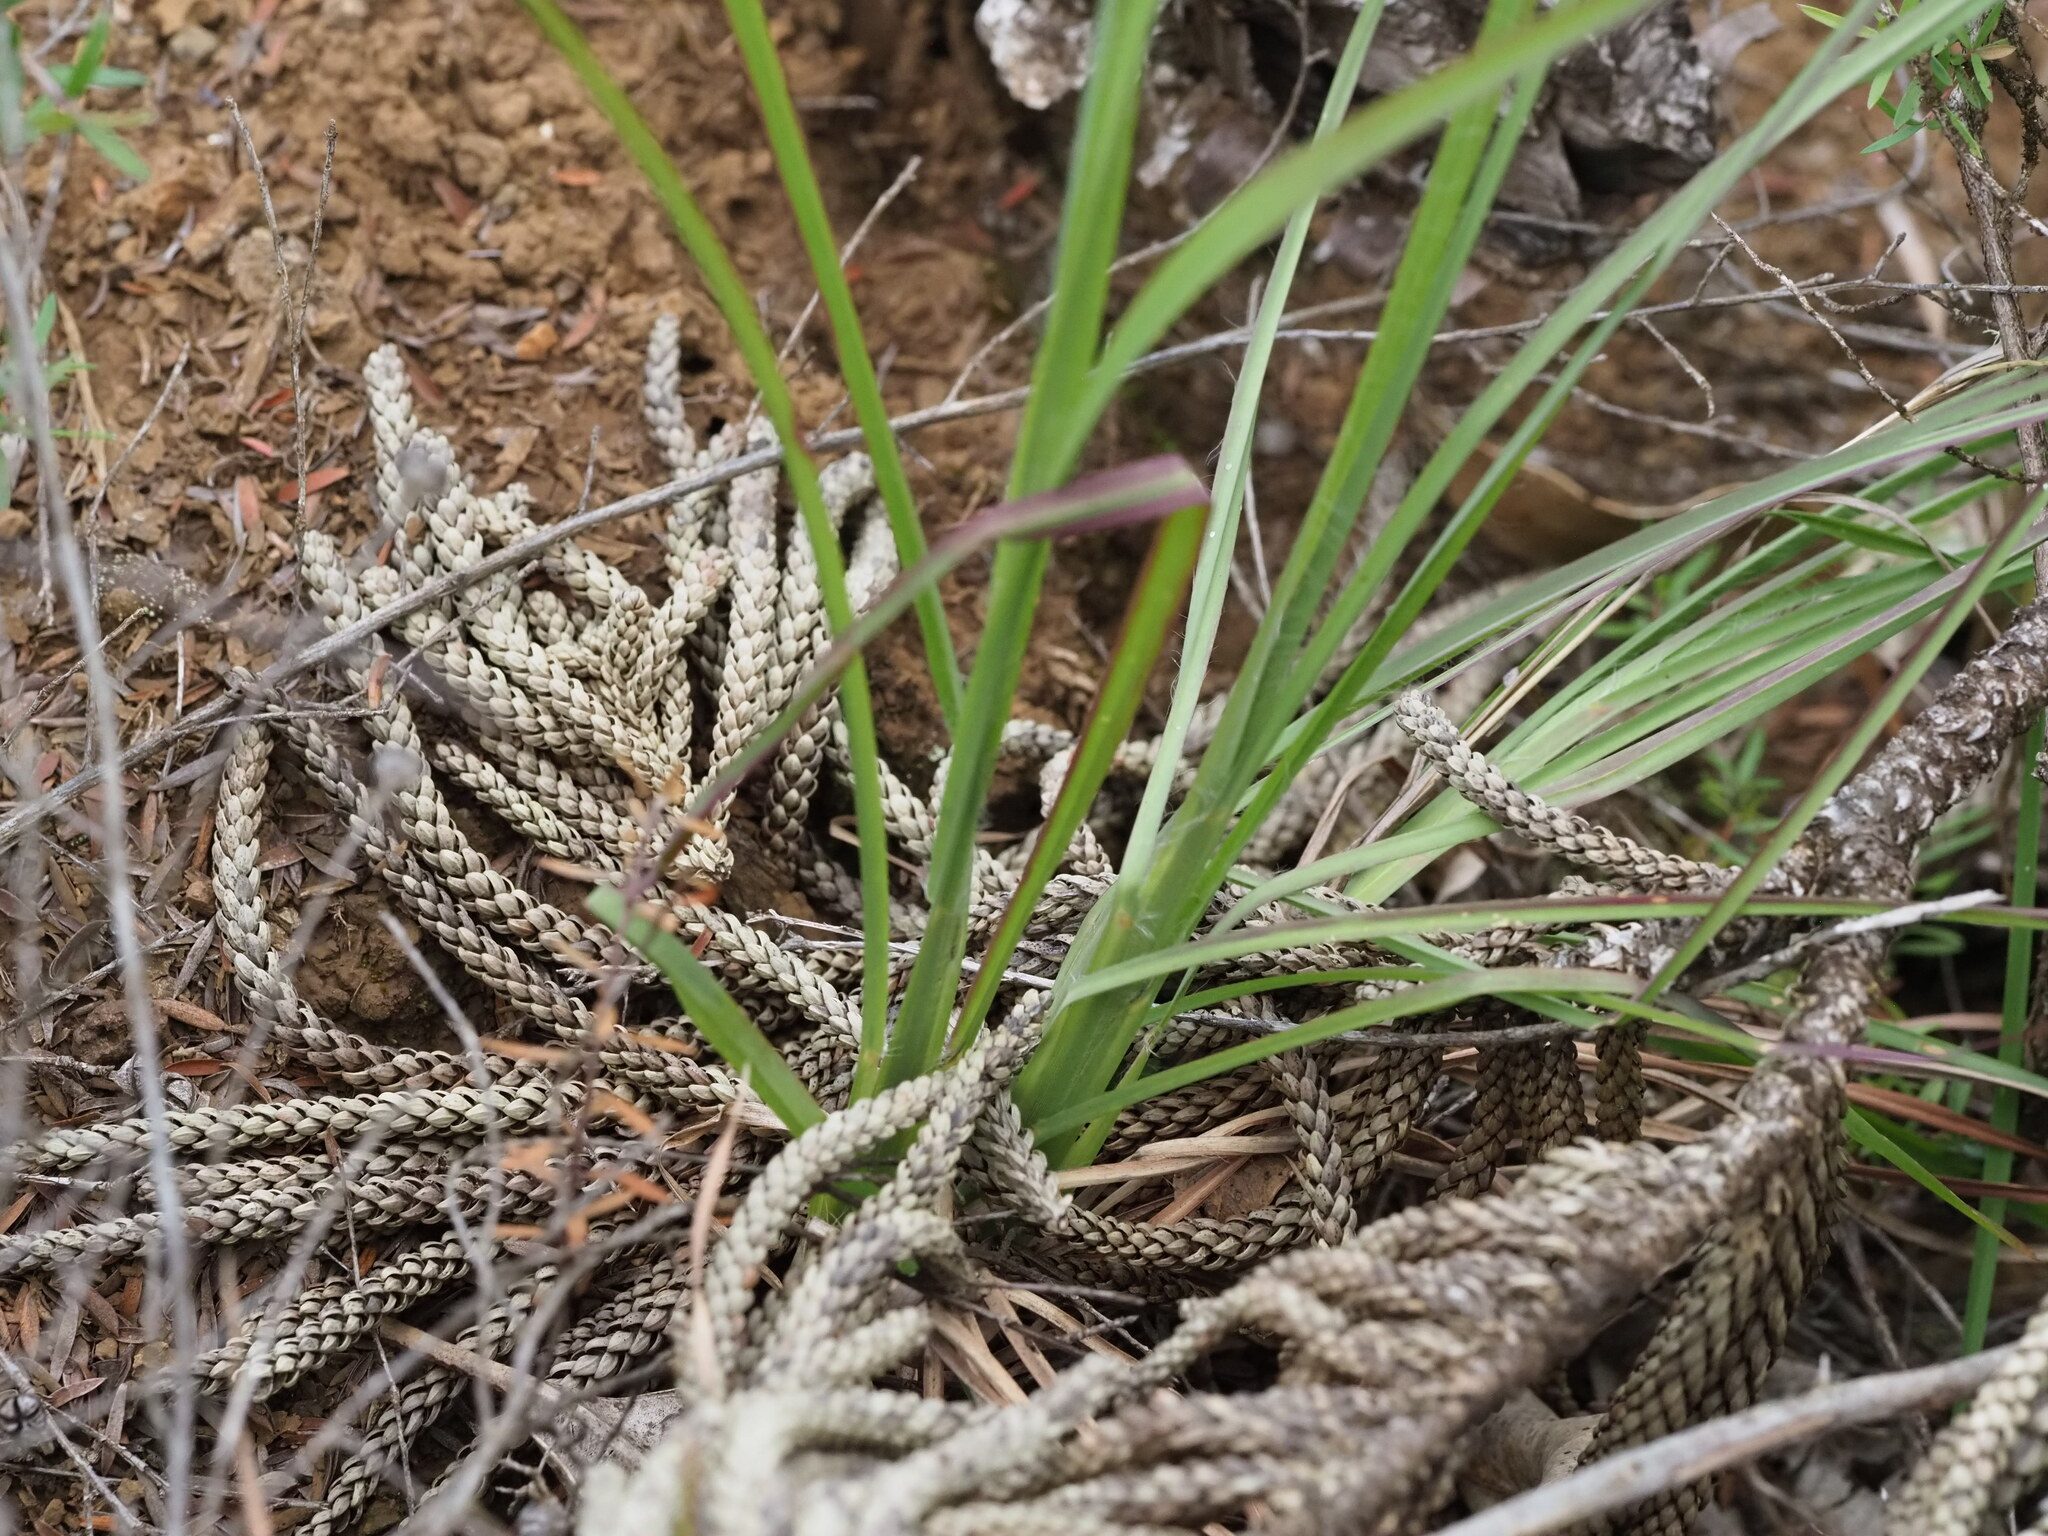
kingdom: Plantae
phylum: Tracheophyta
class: Liliopsida
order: Poales
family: Poaceae
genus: Andropogon
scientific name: Andropogon virginicus
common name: Broomsedge bluestem
